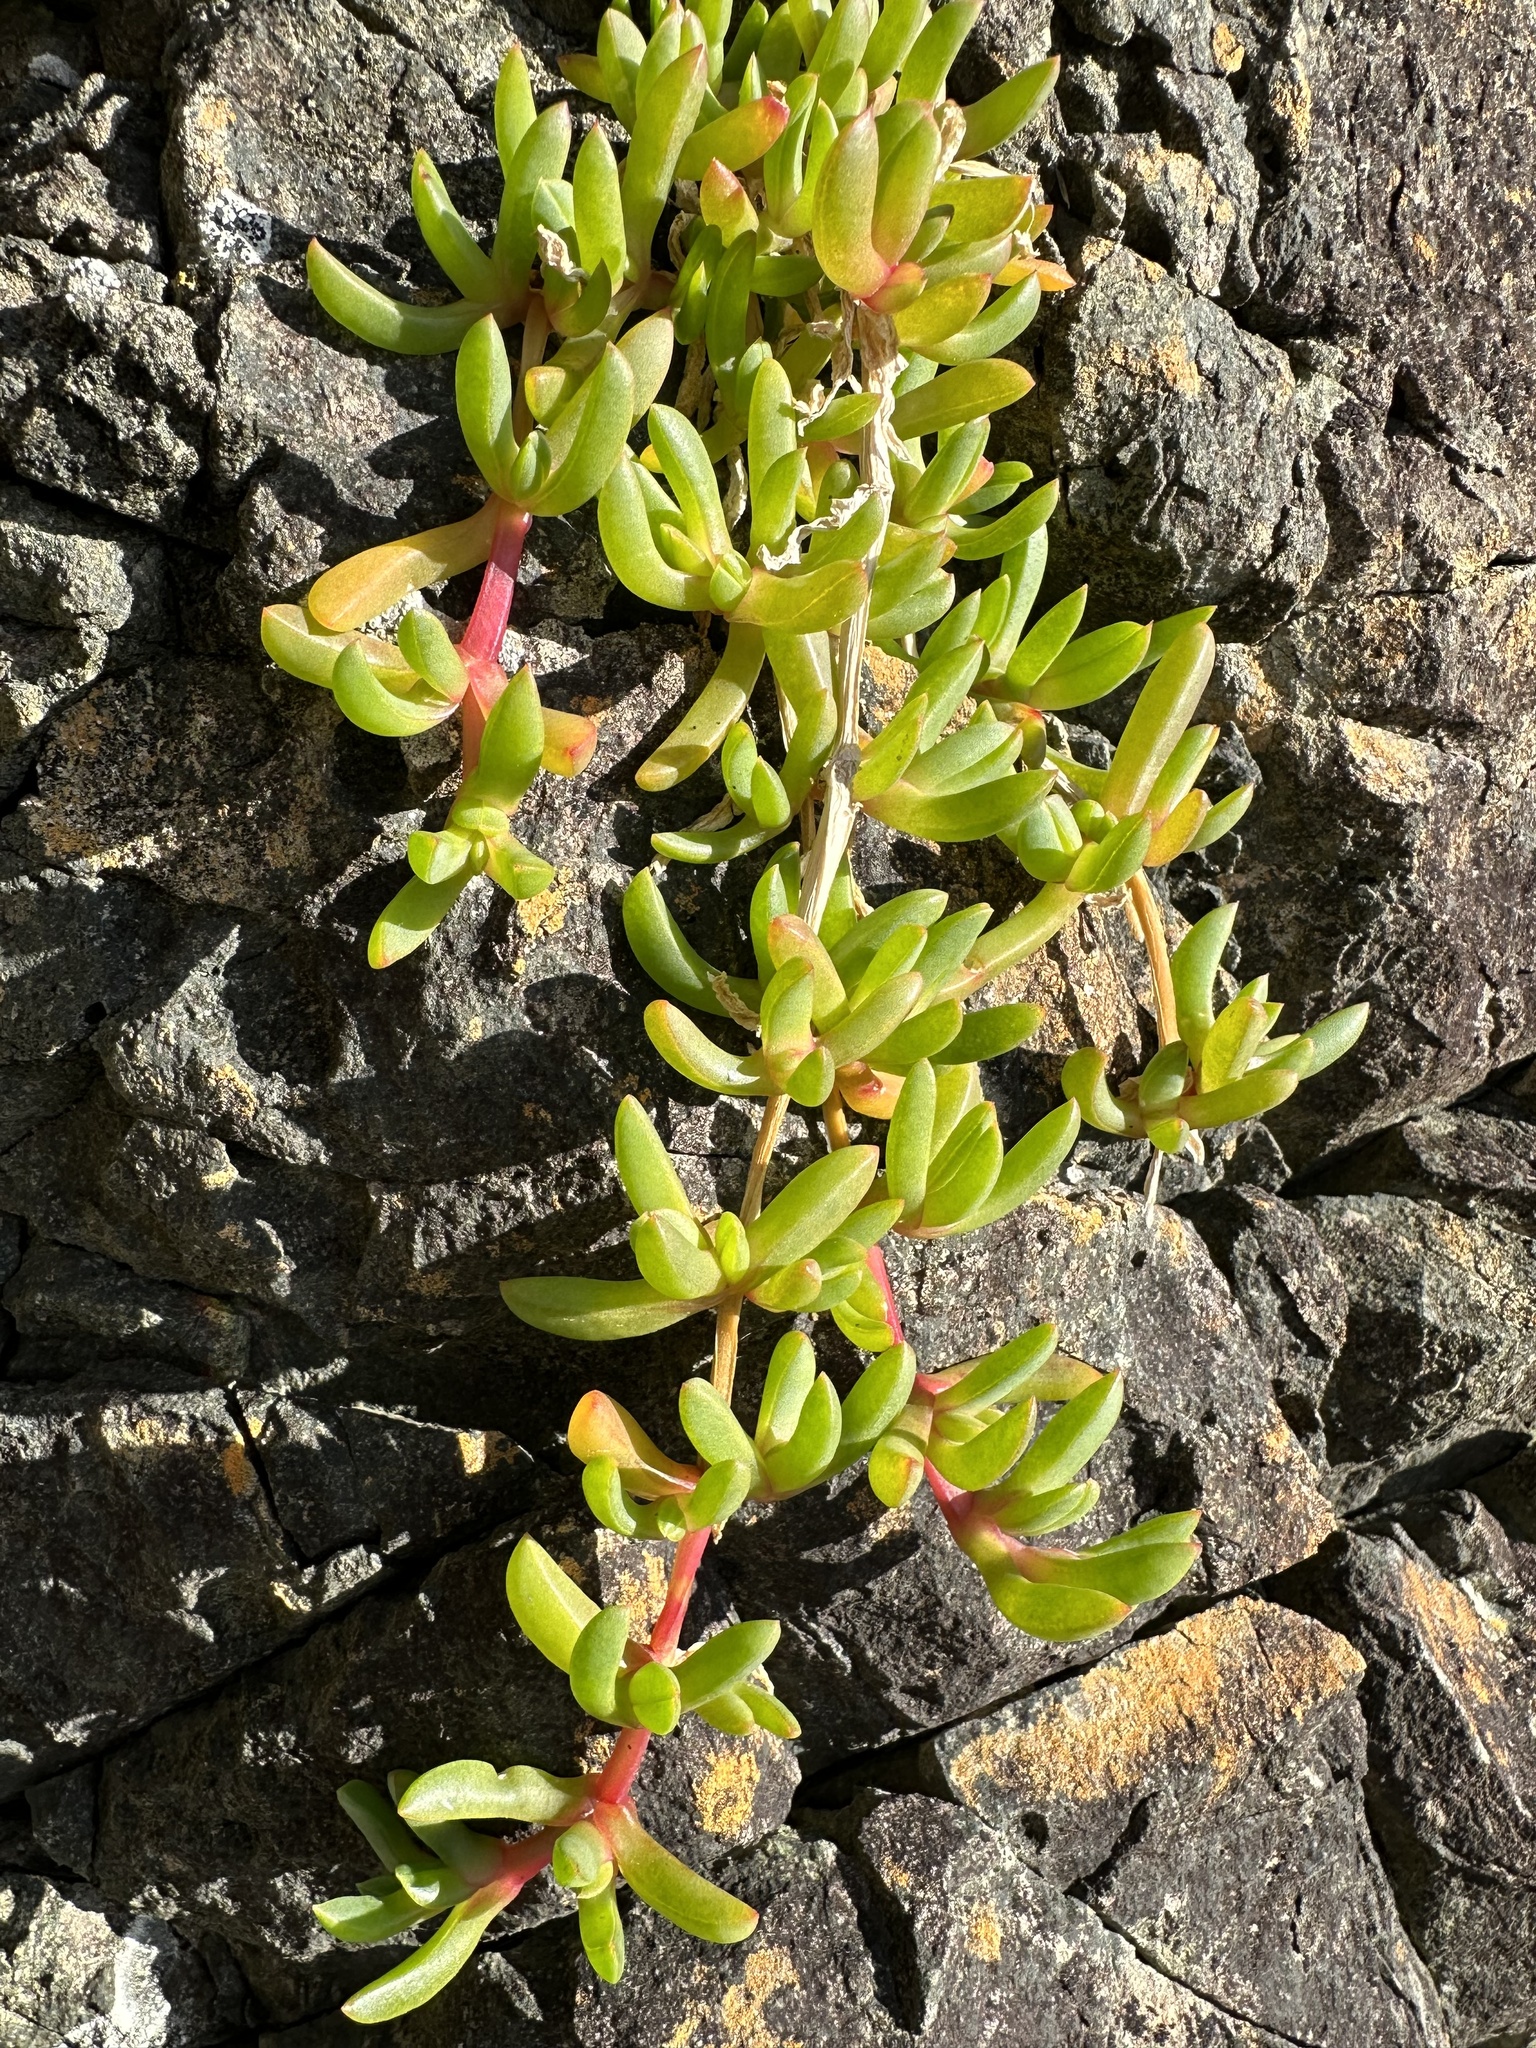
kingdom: Plantae
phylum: Tracheophyta
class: Magnoliopsida
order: Caryophyllales
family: Aizoaceae
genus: Disphyma
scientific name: Disphyma australe
